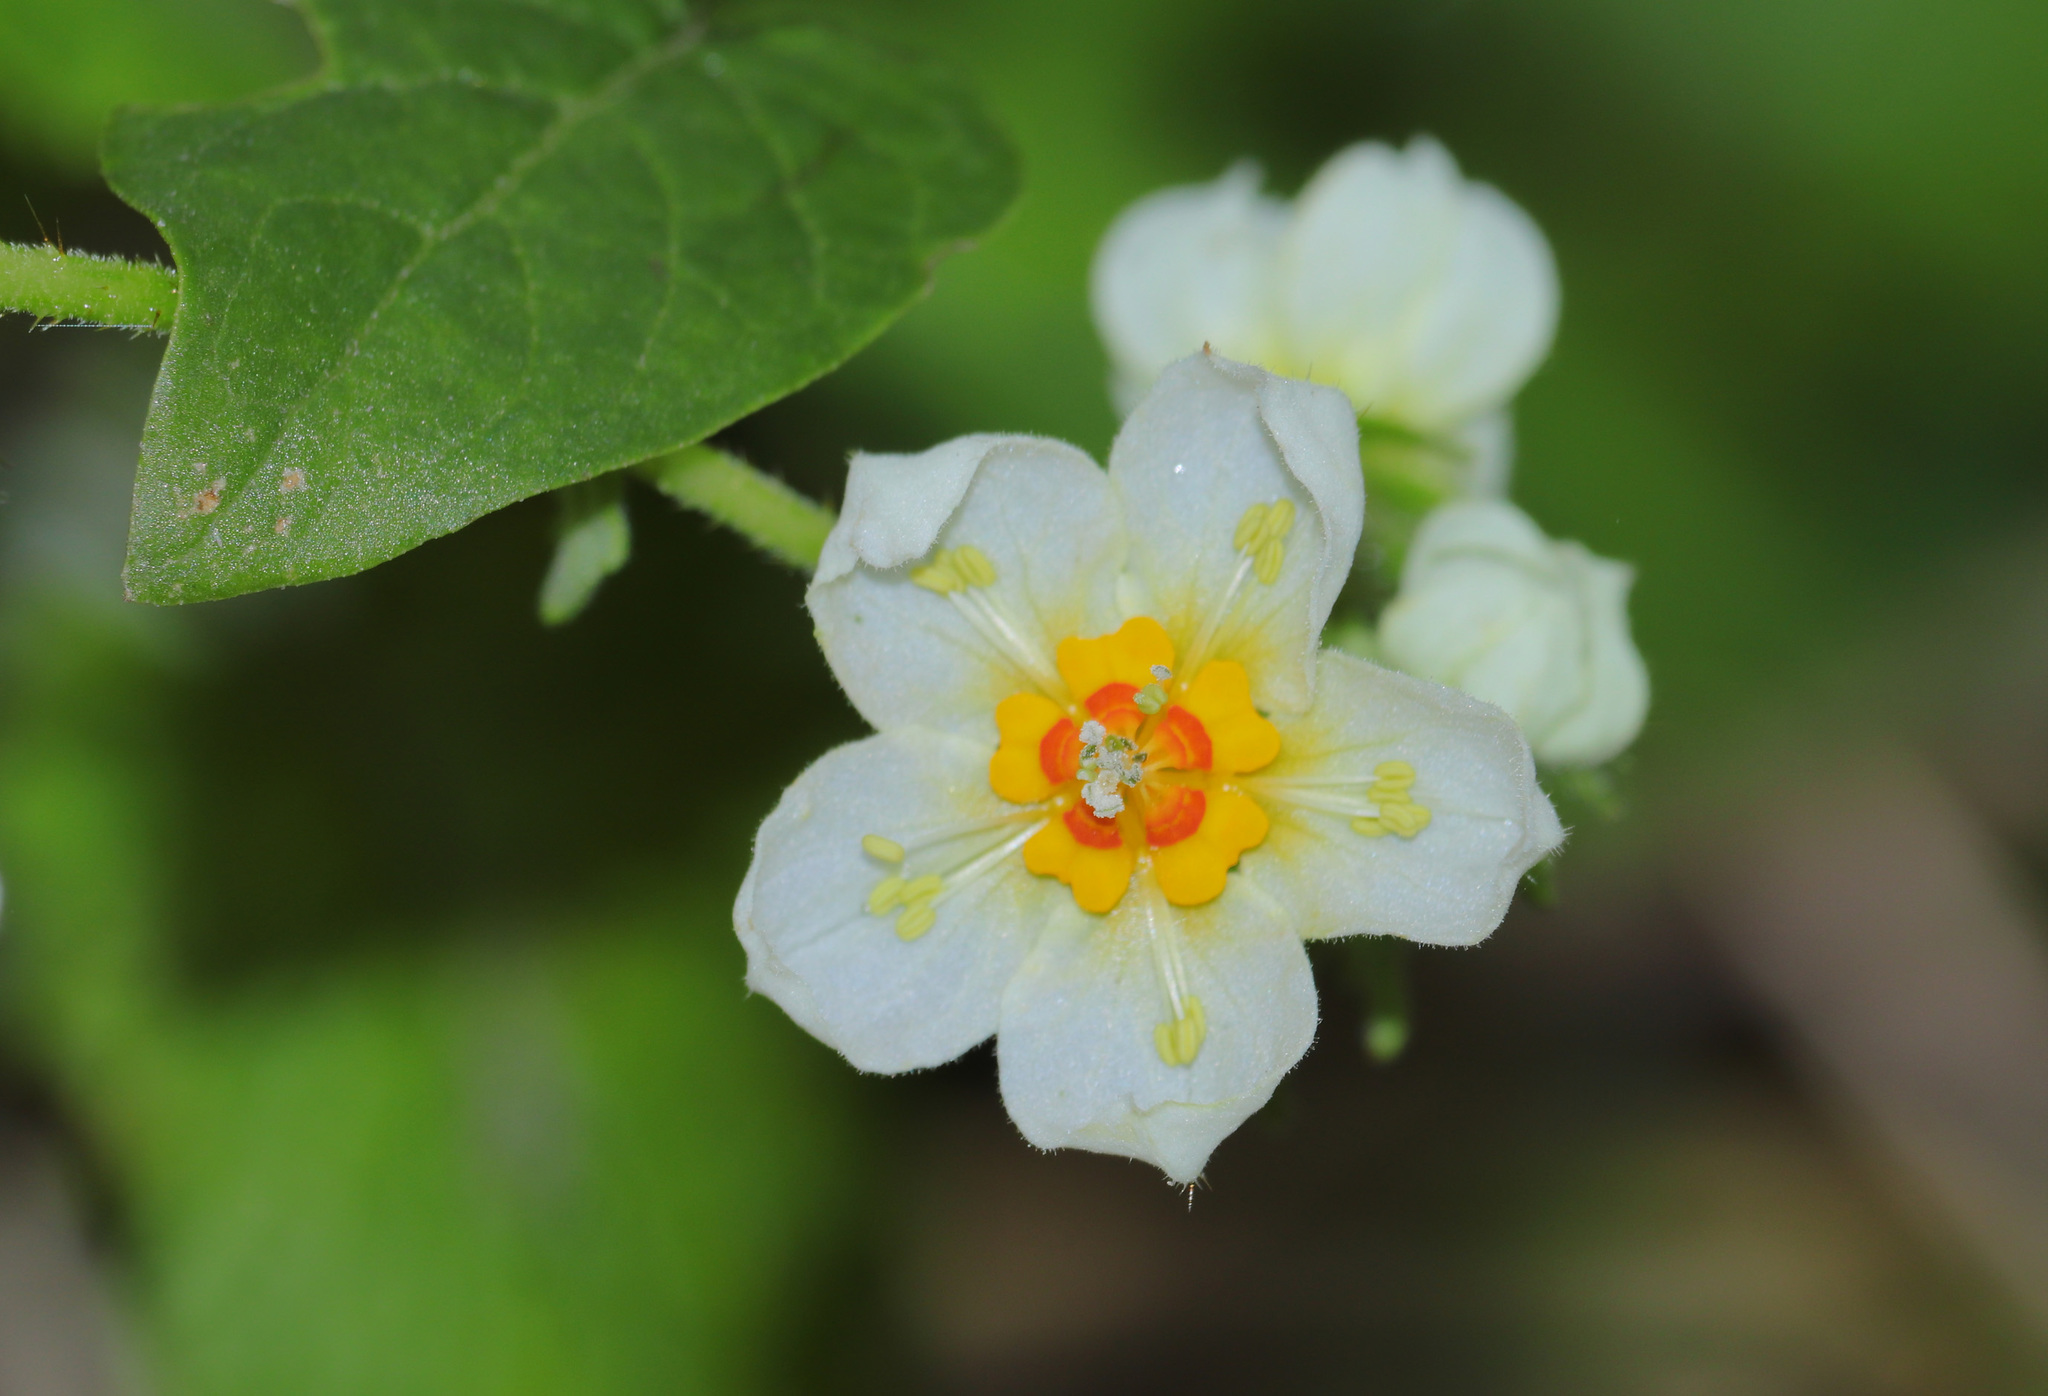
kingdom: Plantae
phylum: Tracheophyta
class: Magnoliopsida
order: Cornales
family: Loasaceae
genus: Nasa
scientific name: Nasa chenopodiifolia
